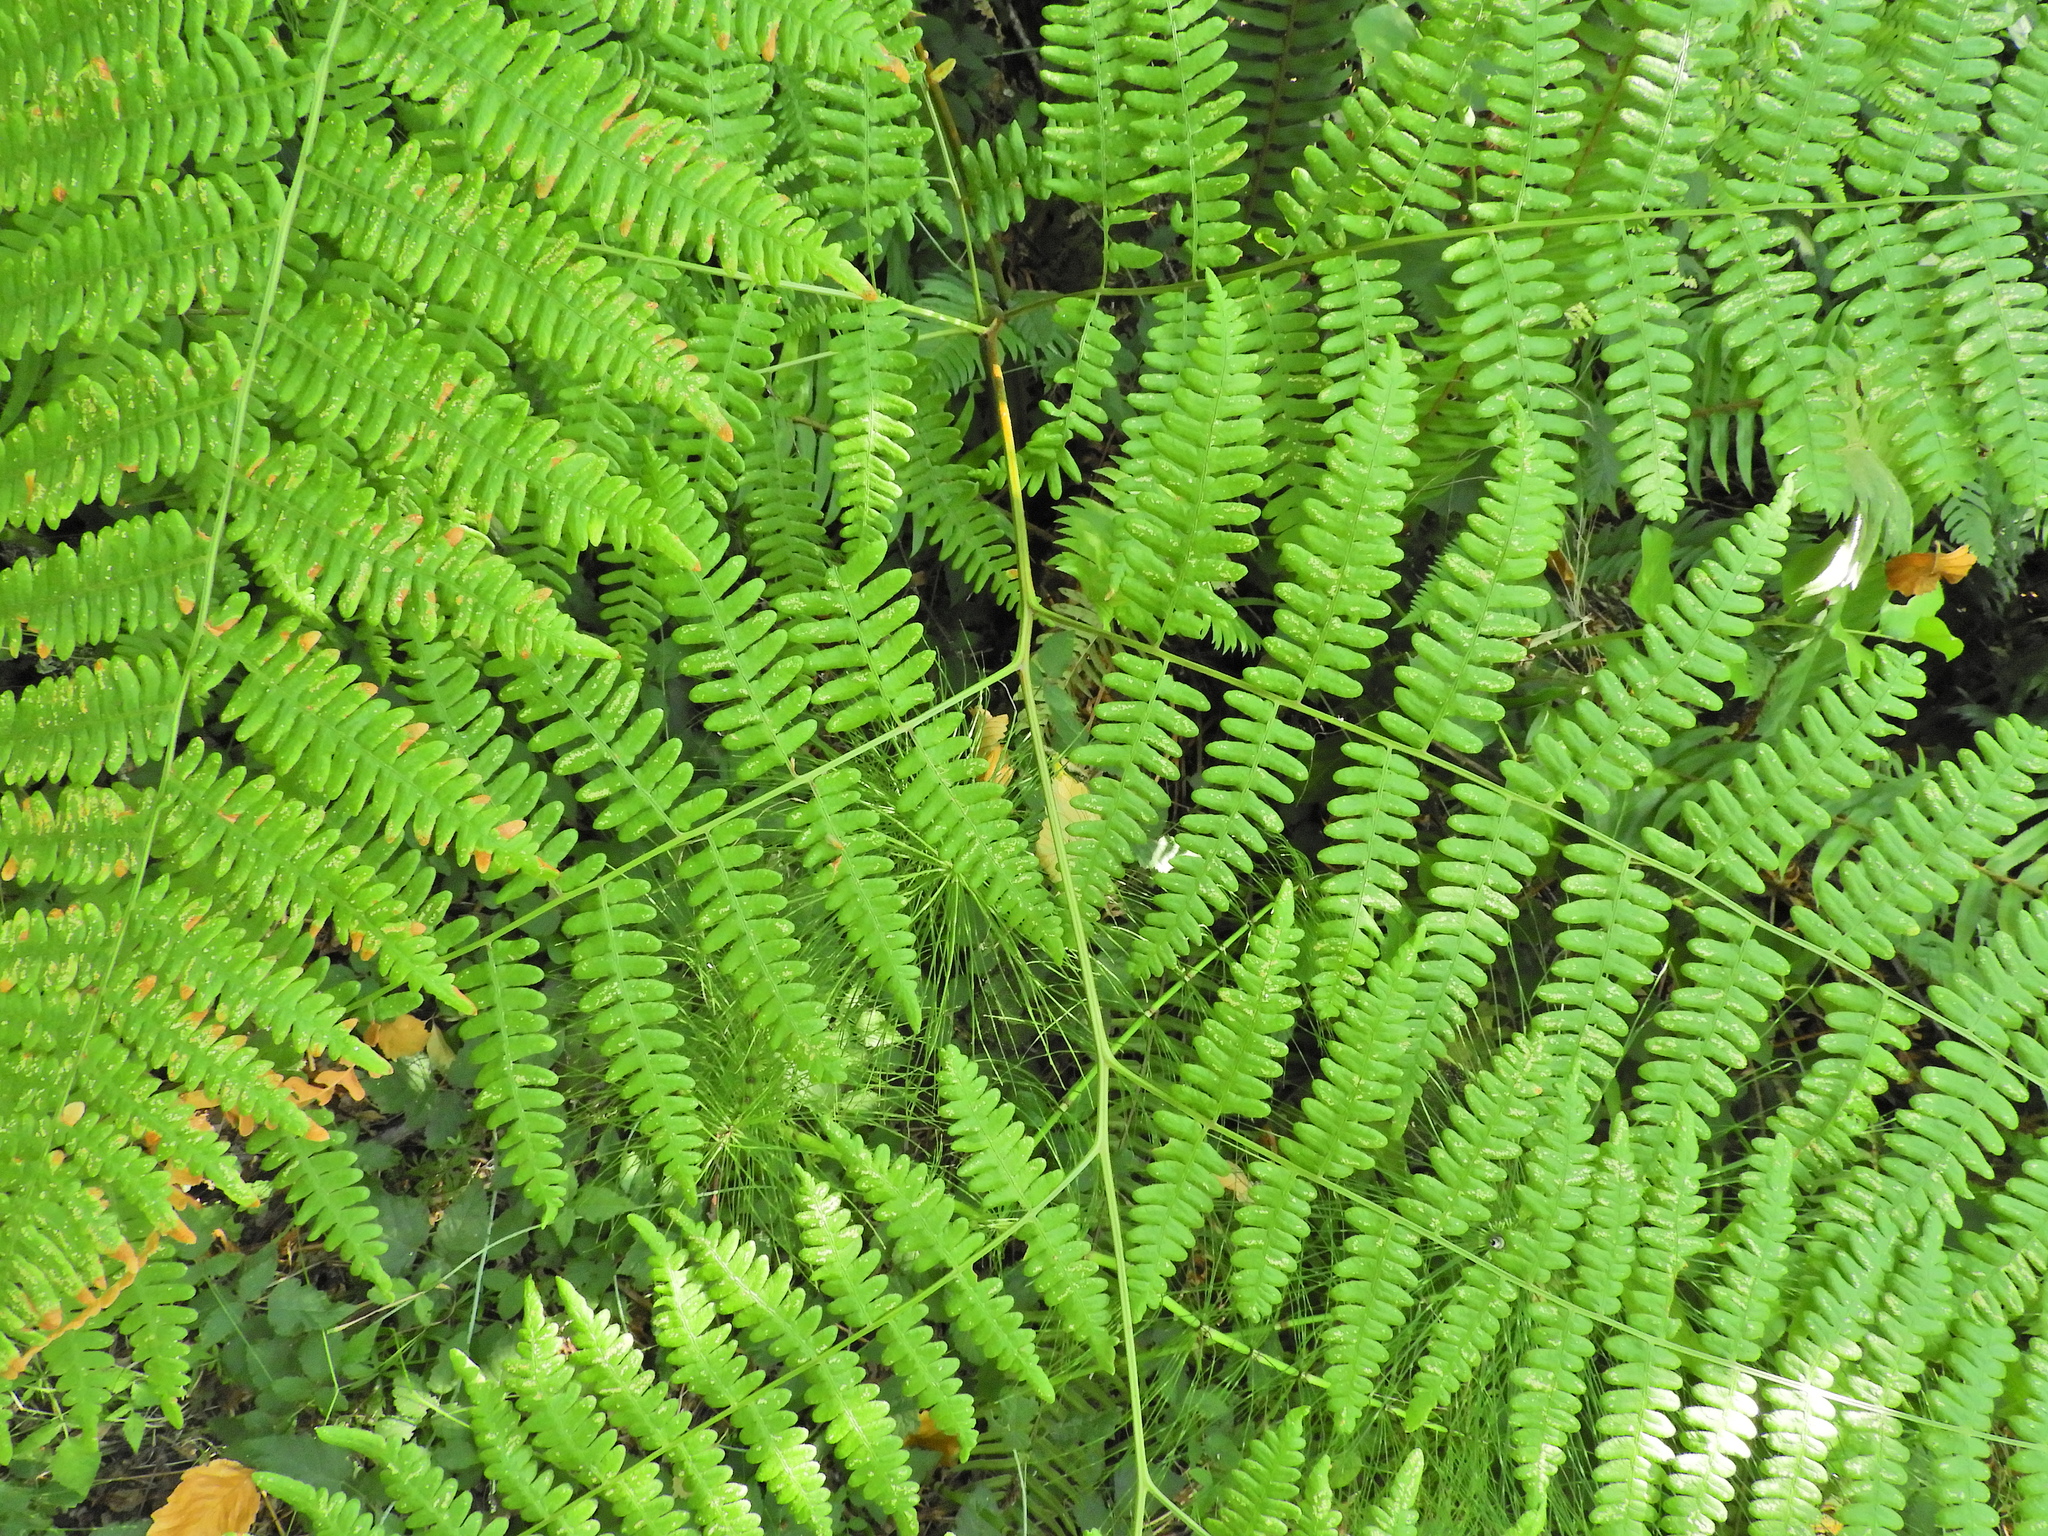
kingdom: Plantae
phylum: Tracheophyta
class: Polypodiopsida
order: Polypodiales
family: Dennstaedtiaceae
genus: Pteridium
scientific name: Pteridium aquilinum
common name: Bracken
